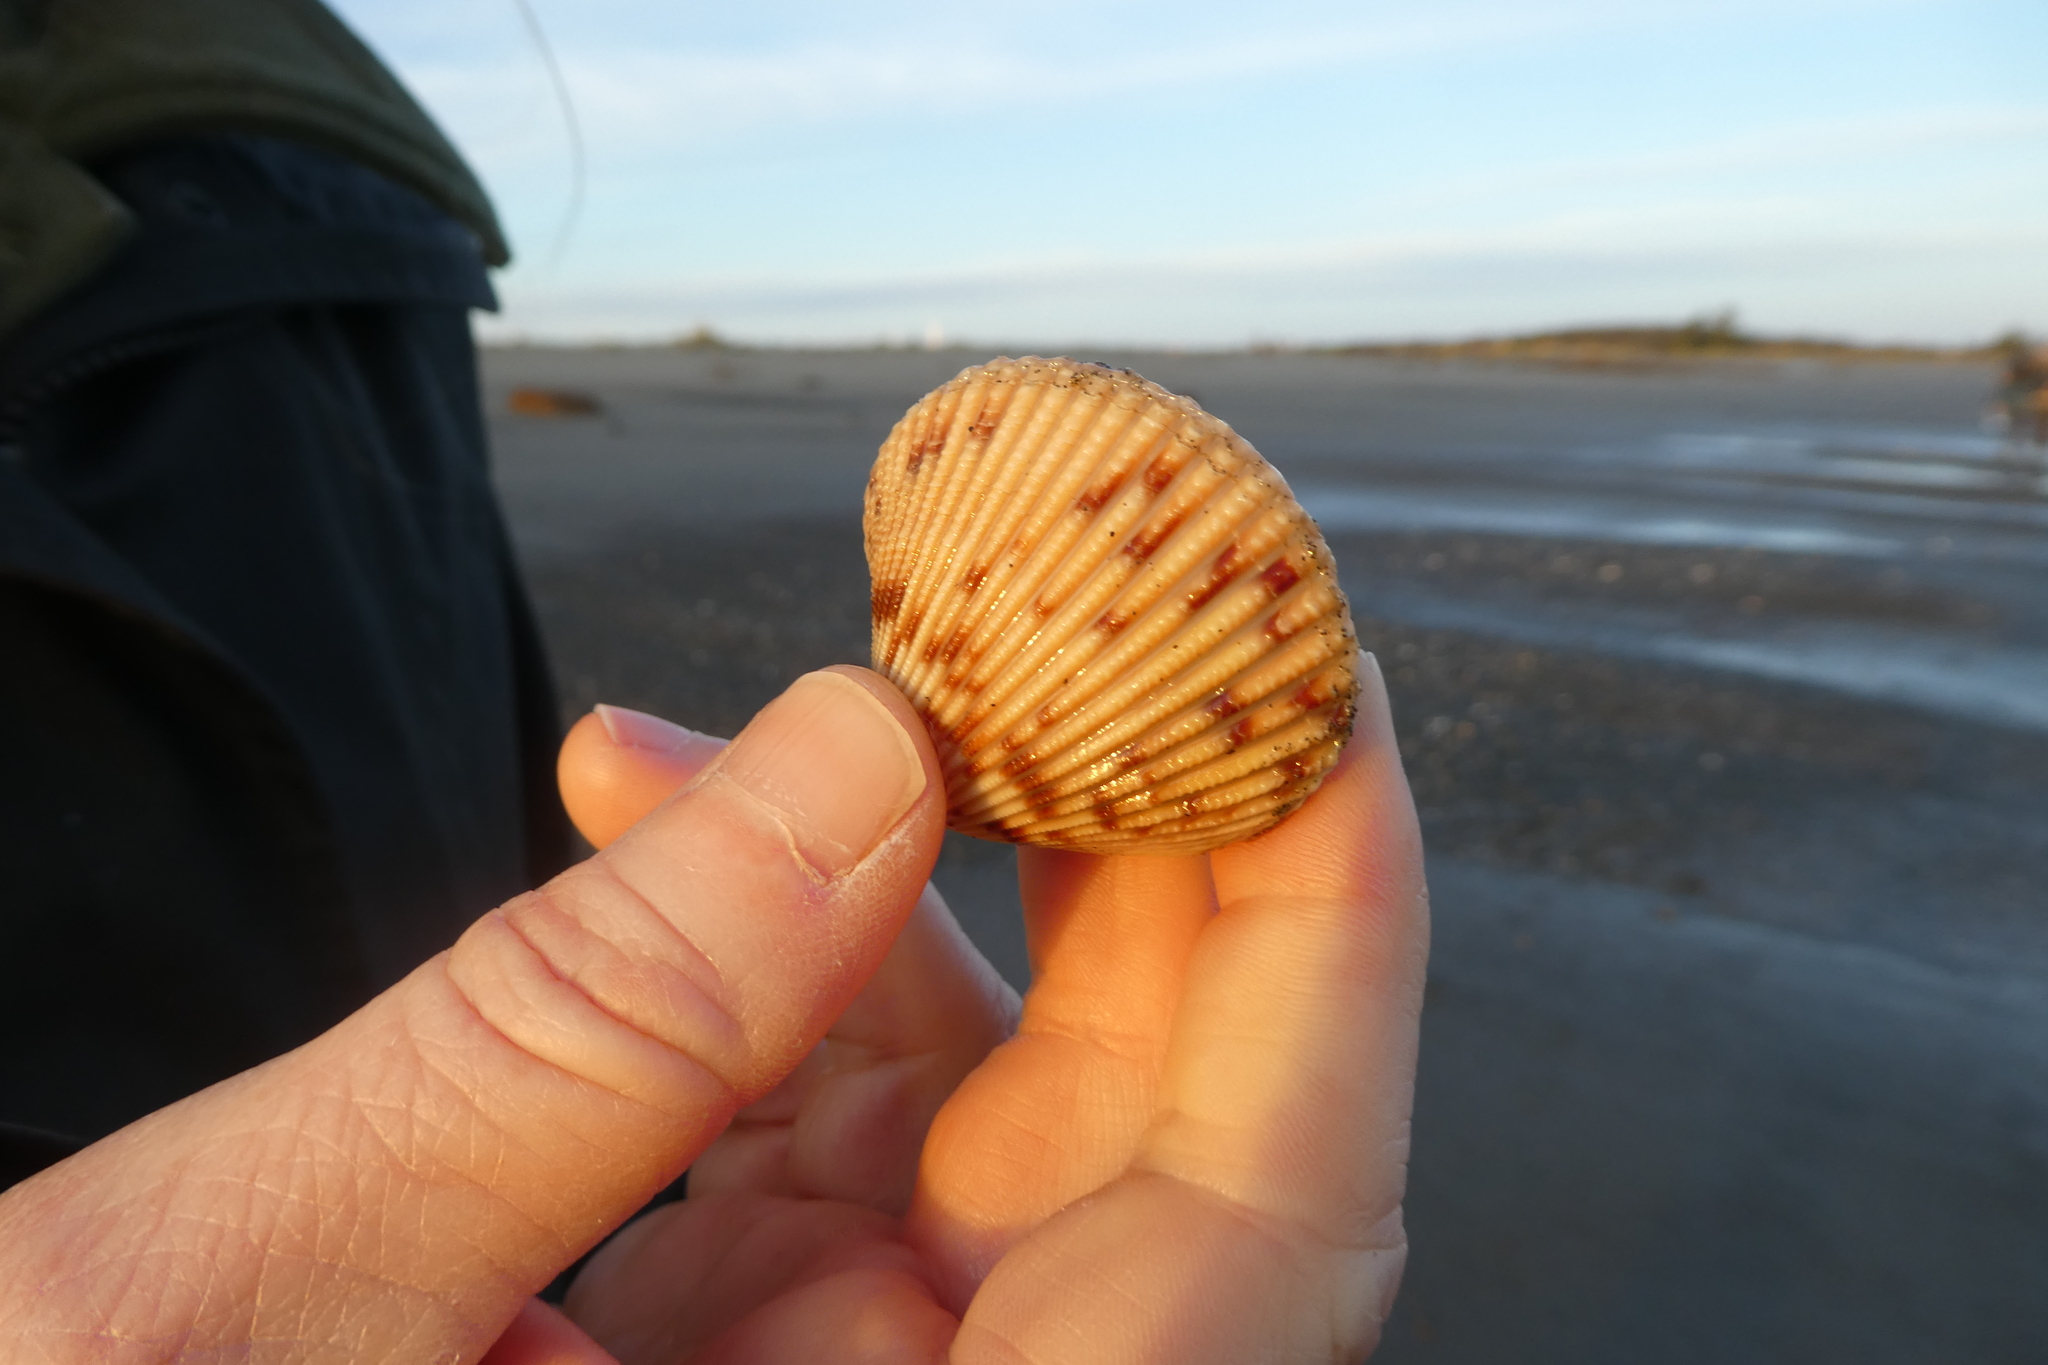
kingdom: Animalia
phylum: Mollusca
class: Bivalvia
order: Cardiida
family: Cardiidae
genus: Clinocardium
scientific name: Clinocardium nuttallii
